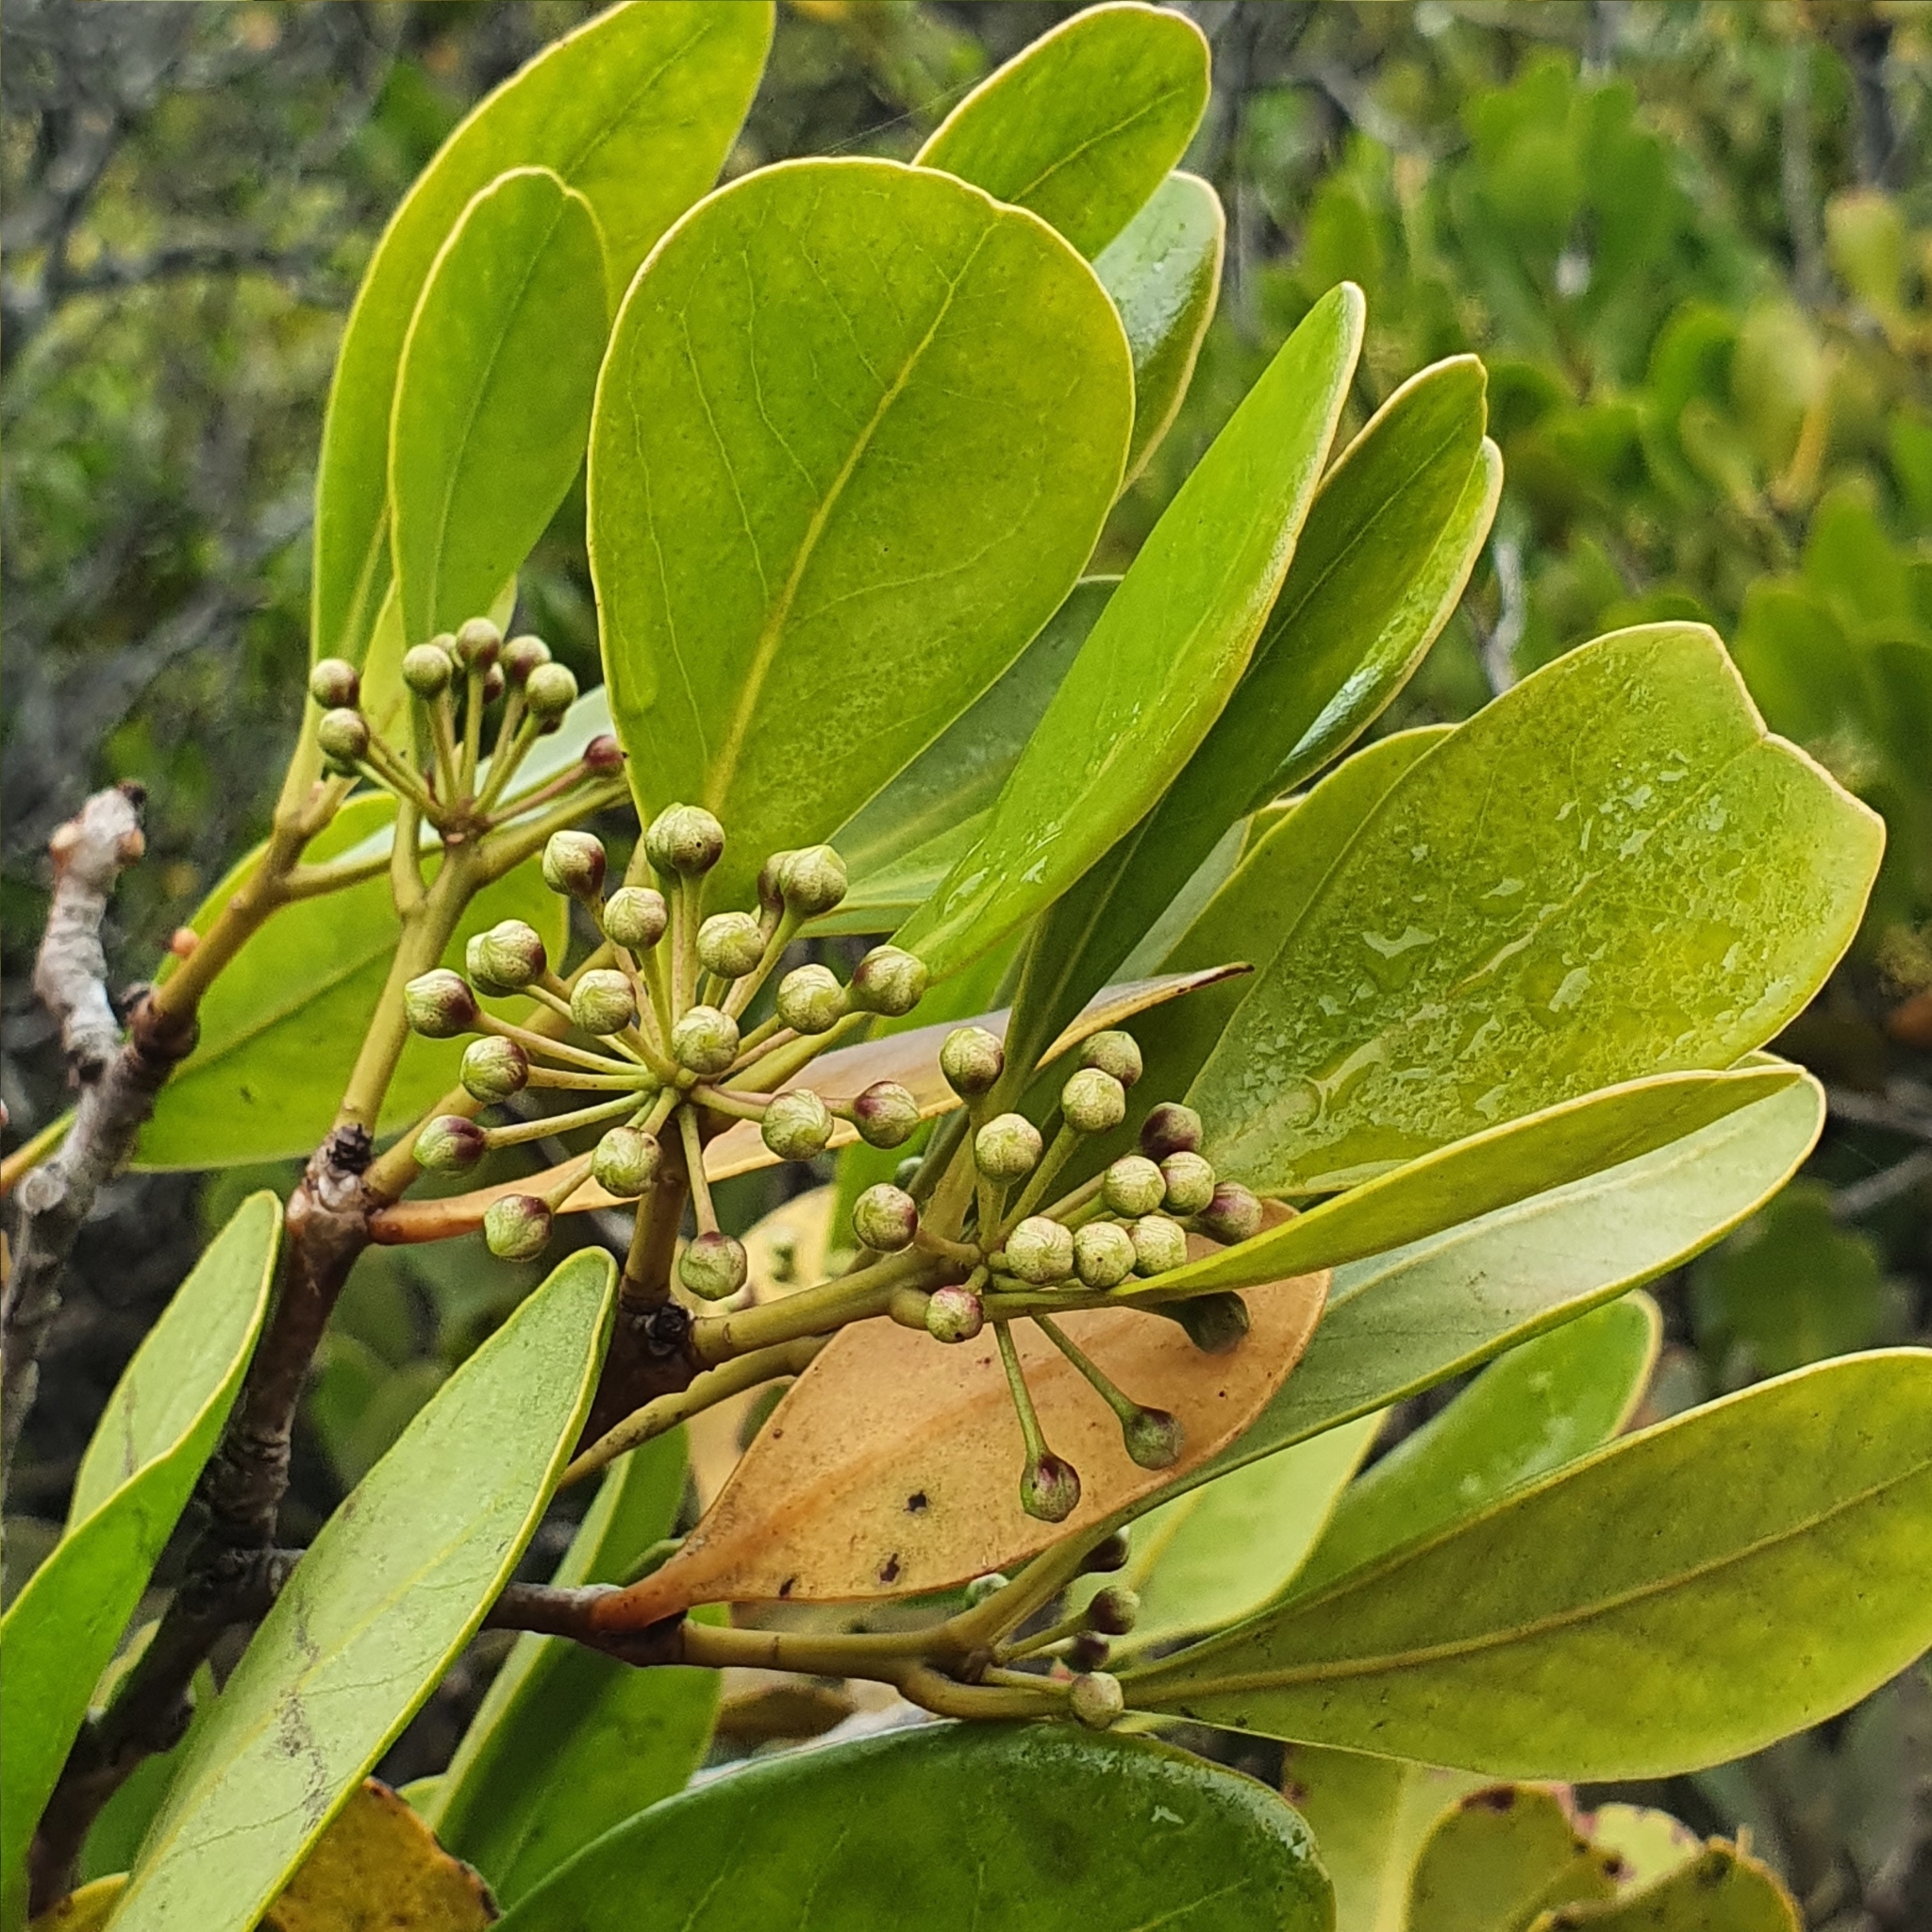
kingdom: Plantae
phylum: Tracheophyta
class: Magnoliopsida
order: Ericales
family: Primulaceae
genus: Aegiceras
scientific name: Aegiceras corniculatum
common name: River mangrove
